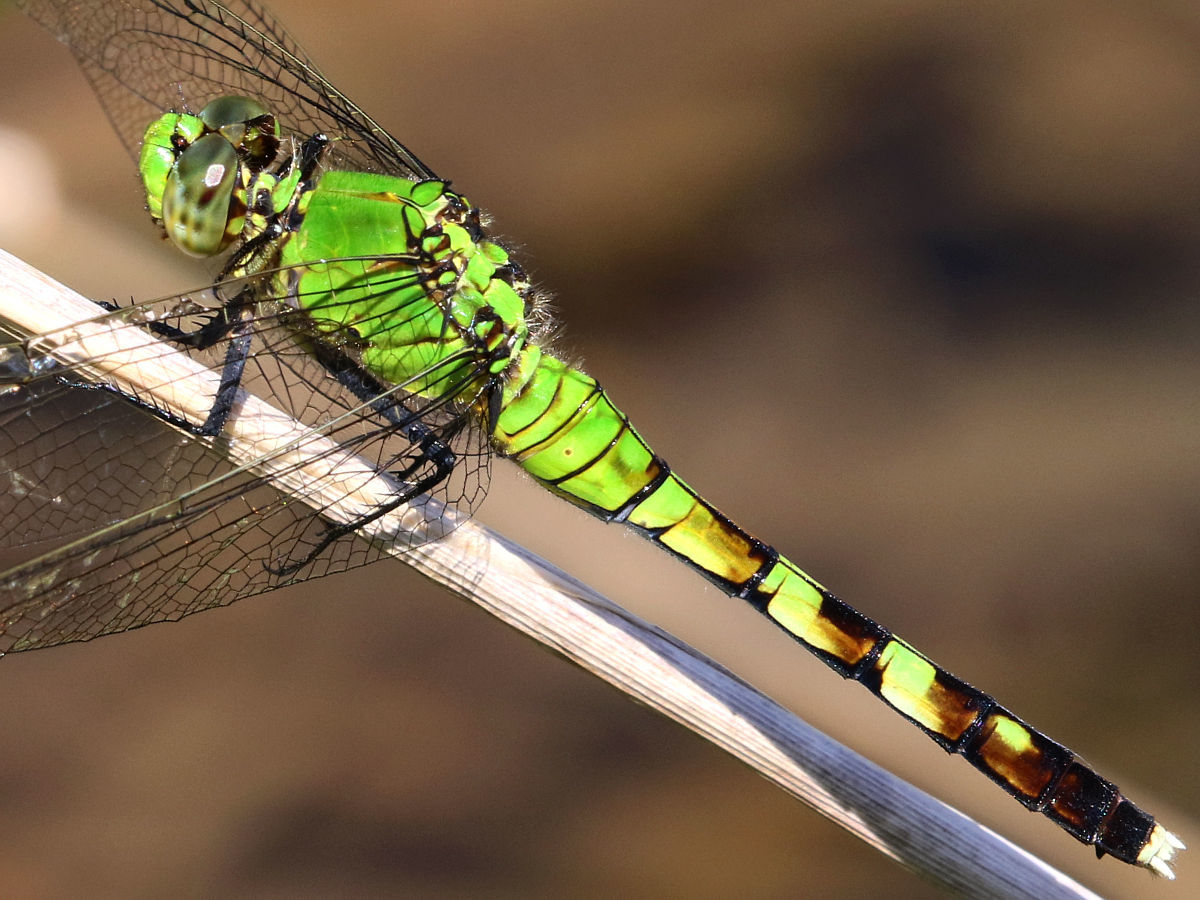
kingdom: Animalia
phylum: Arthropoda
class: Insecta
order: Odonata
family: Libellulidae
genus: Erythemis
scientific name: Erythemis simplicicollis
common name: Eastern pondhawk
